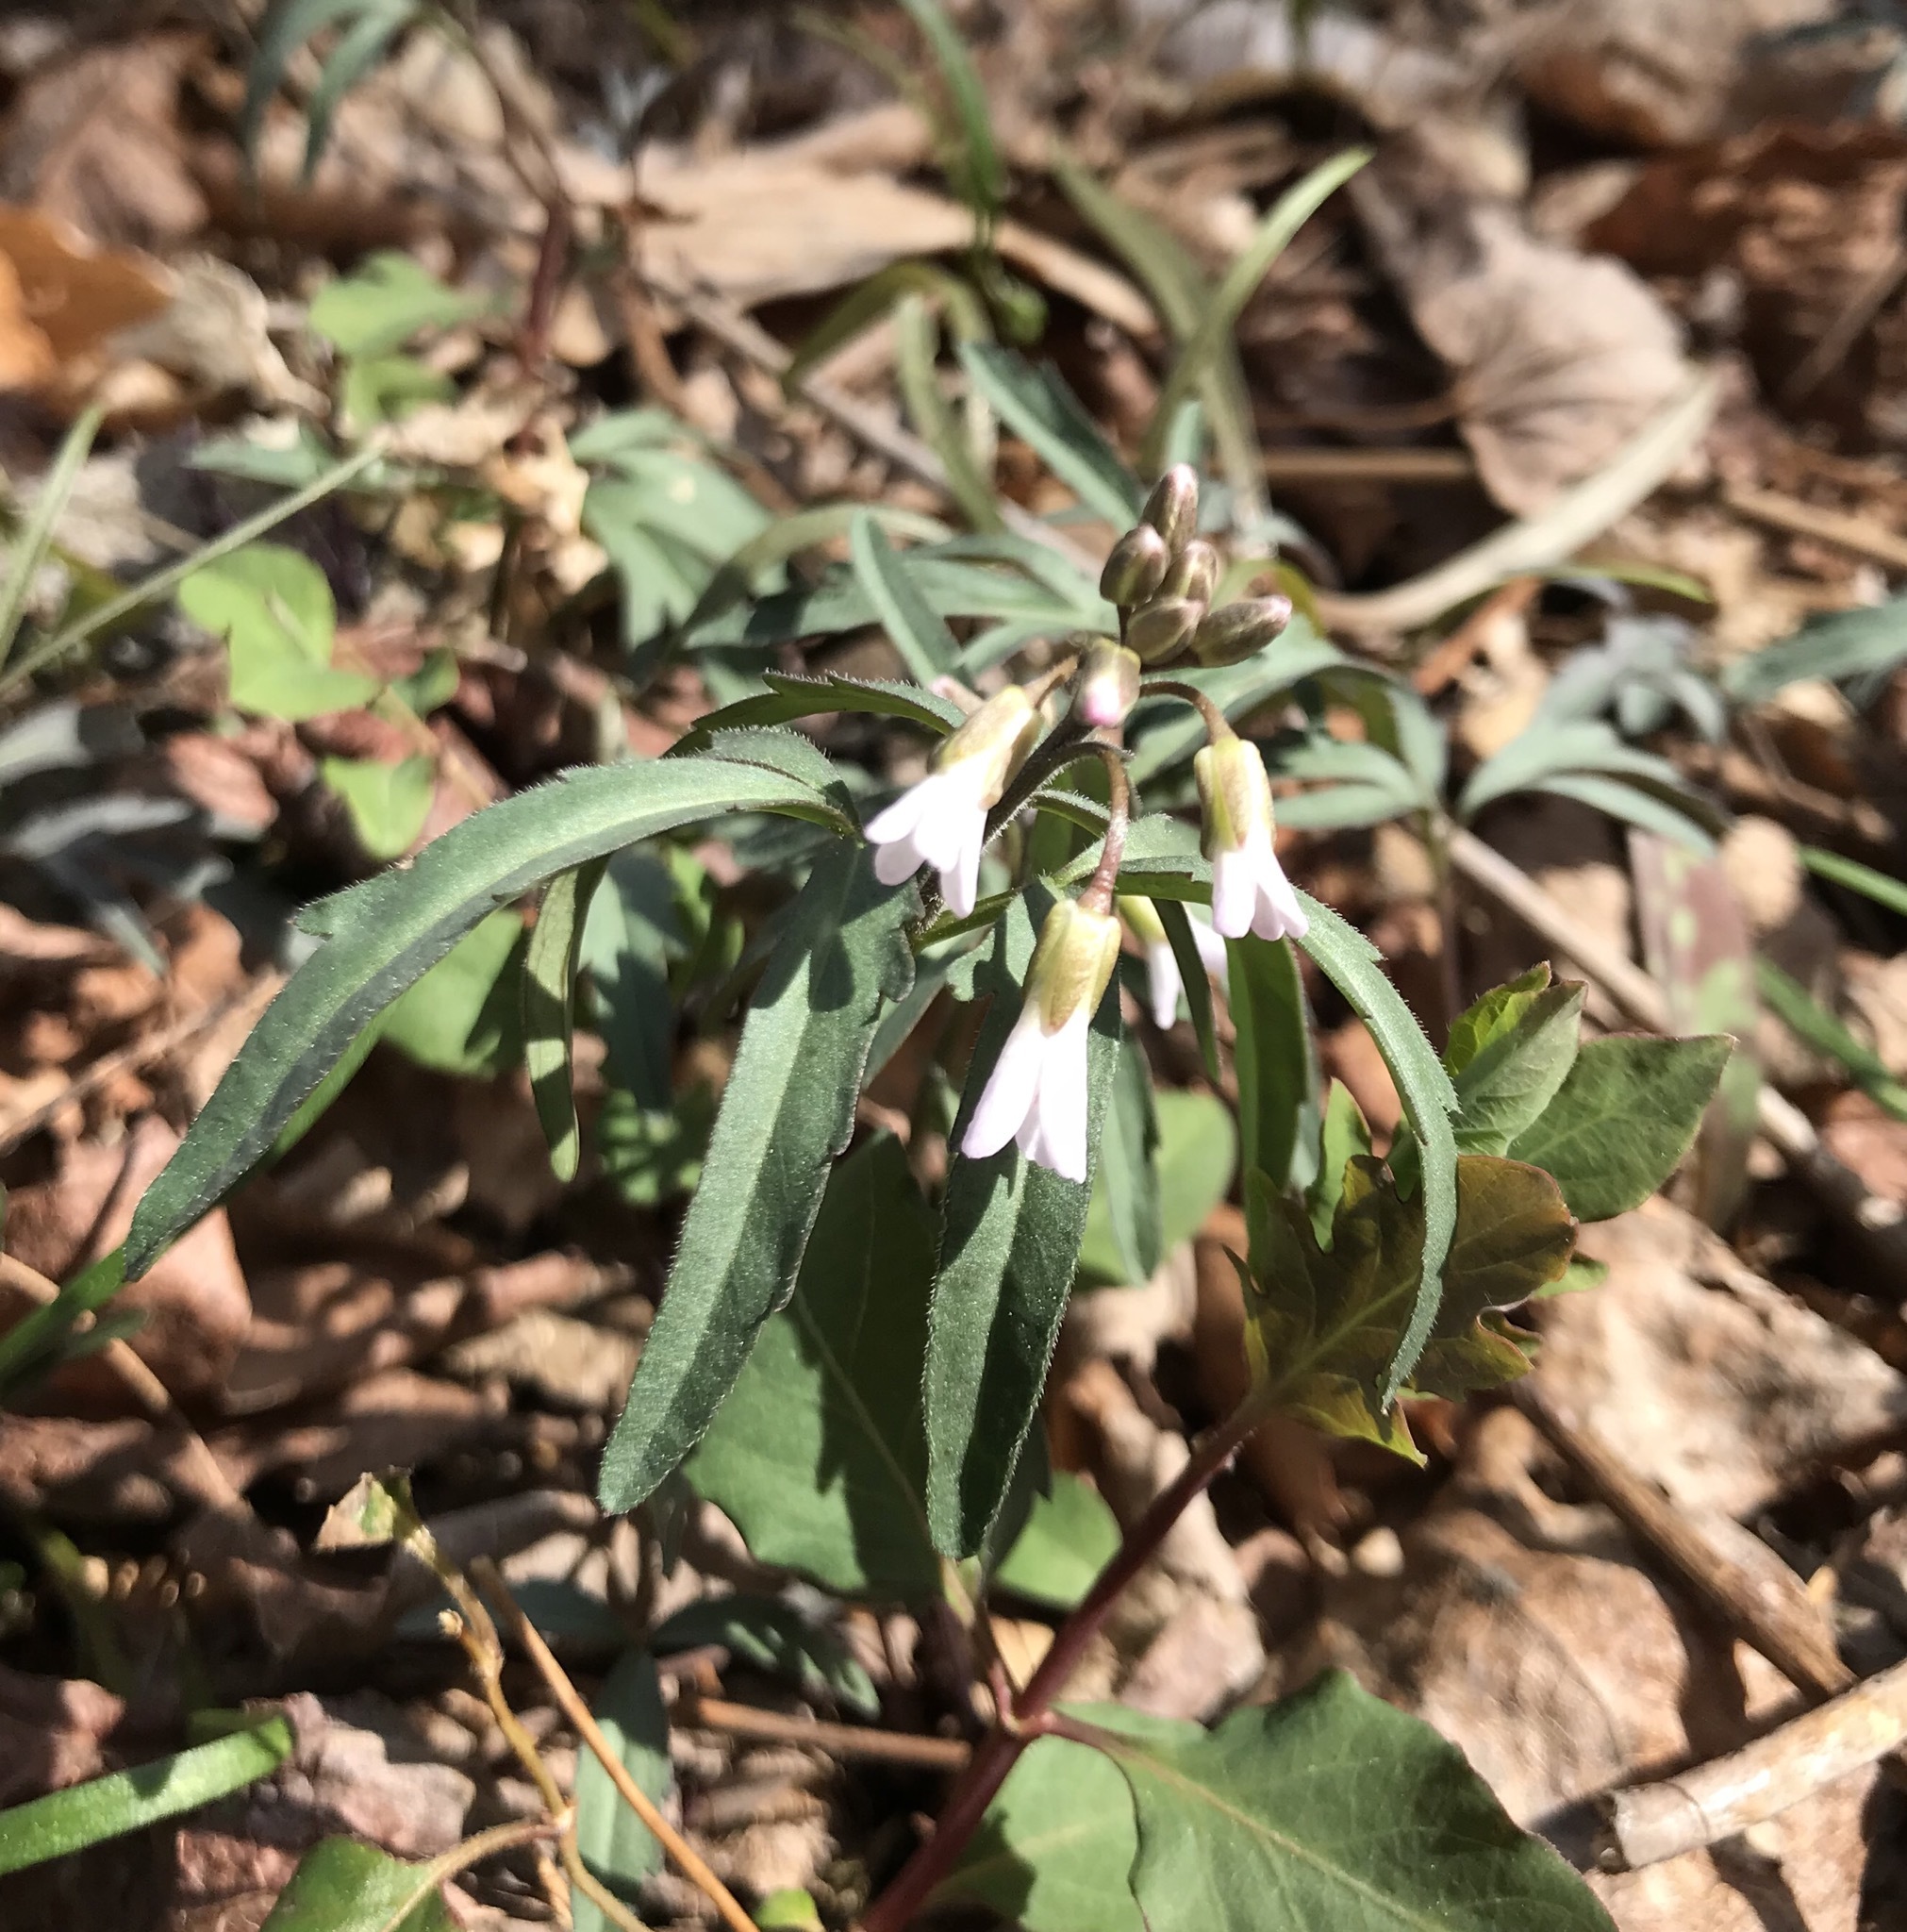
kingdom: Plantae
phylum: Tracheophyta
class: Magnoliopsida
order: Brassicales
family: Brassicaceae
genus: Cardamine
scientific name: Cardamine concatenata
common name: Cut-leaf toothcup
